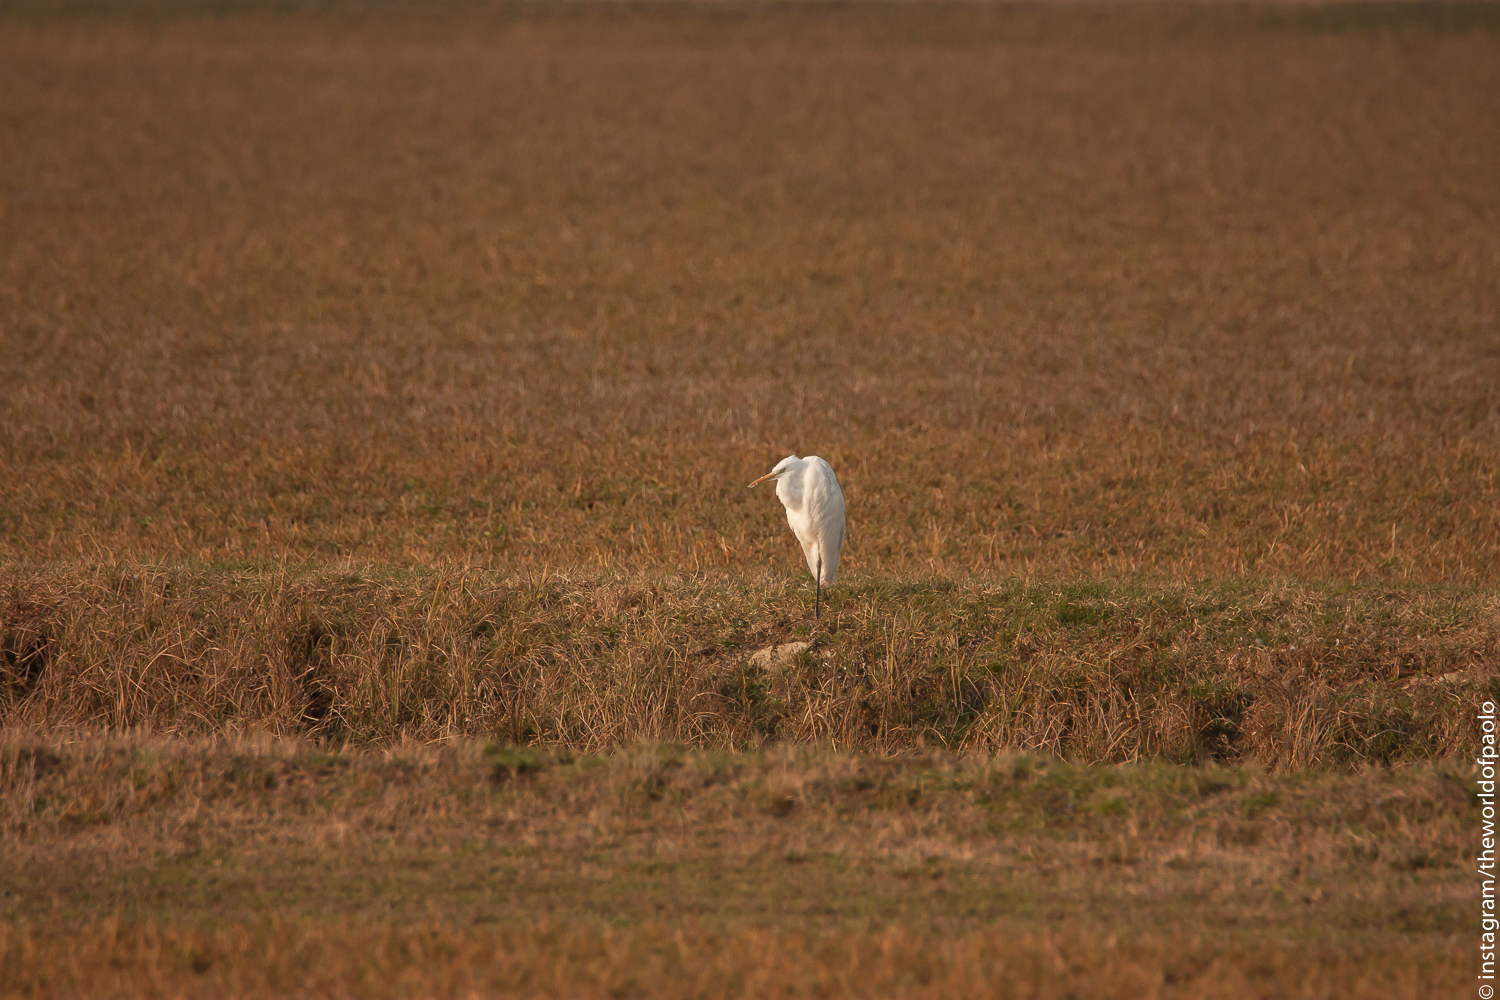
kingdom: Animalia
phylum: Chordata
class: Aves
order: Pelecaniformes
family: Ardeidae
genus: Ardea
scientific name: Ardea alba
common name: Great egret
